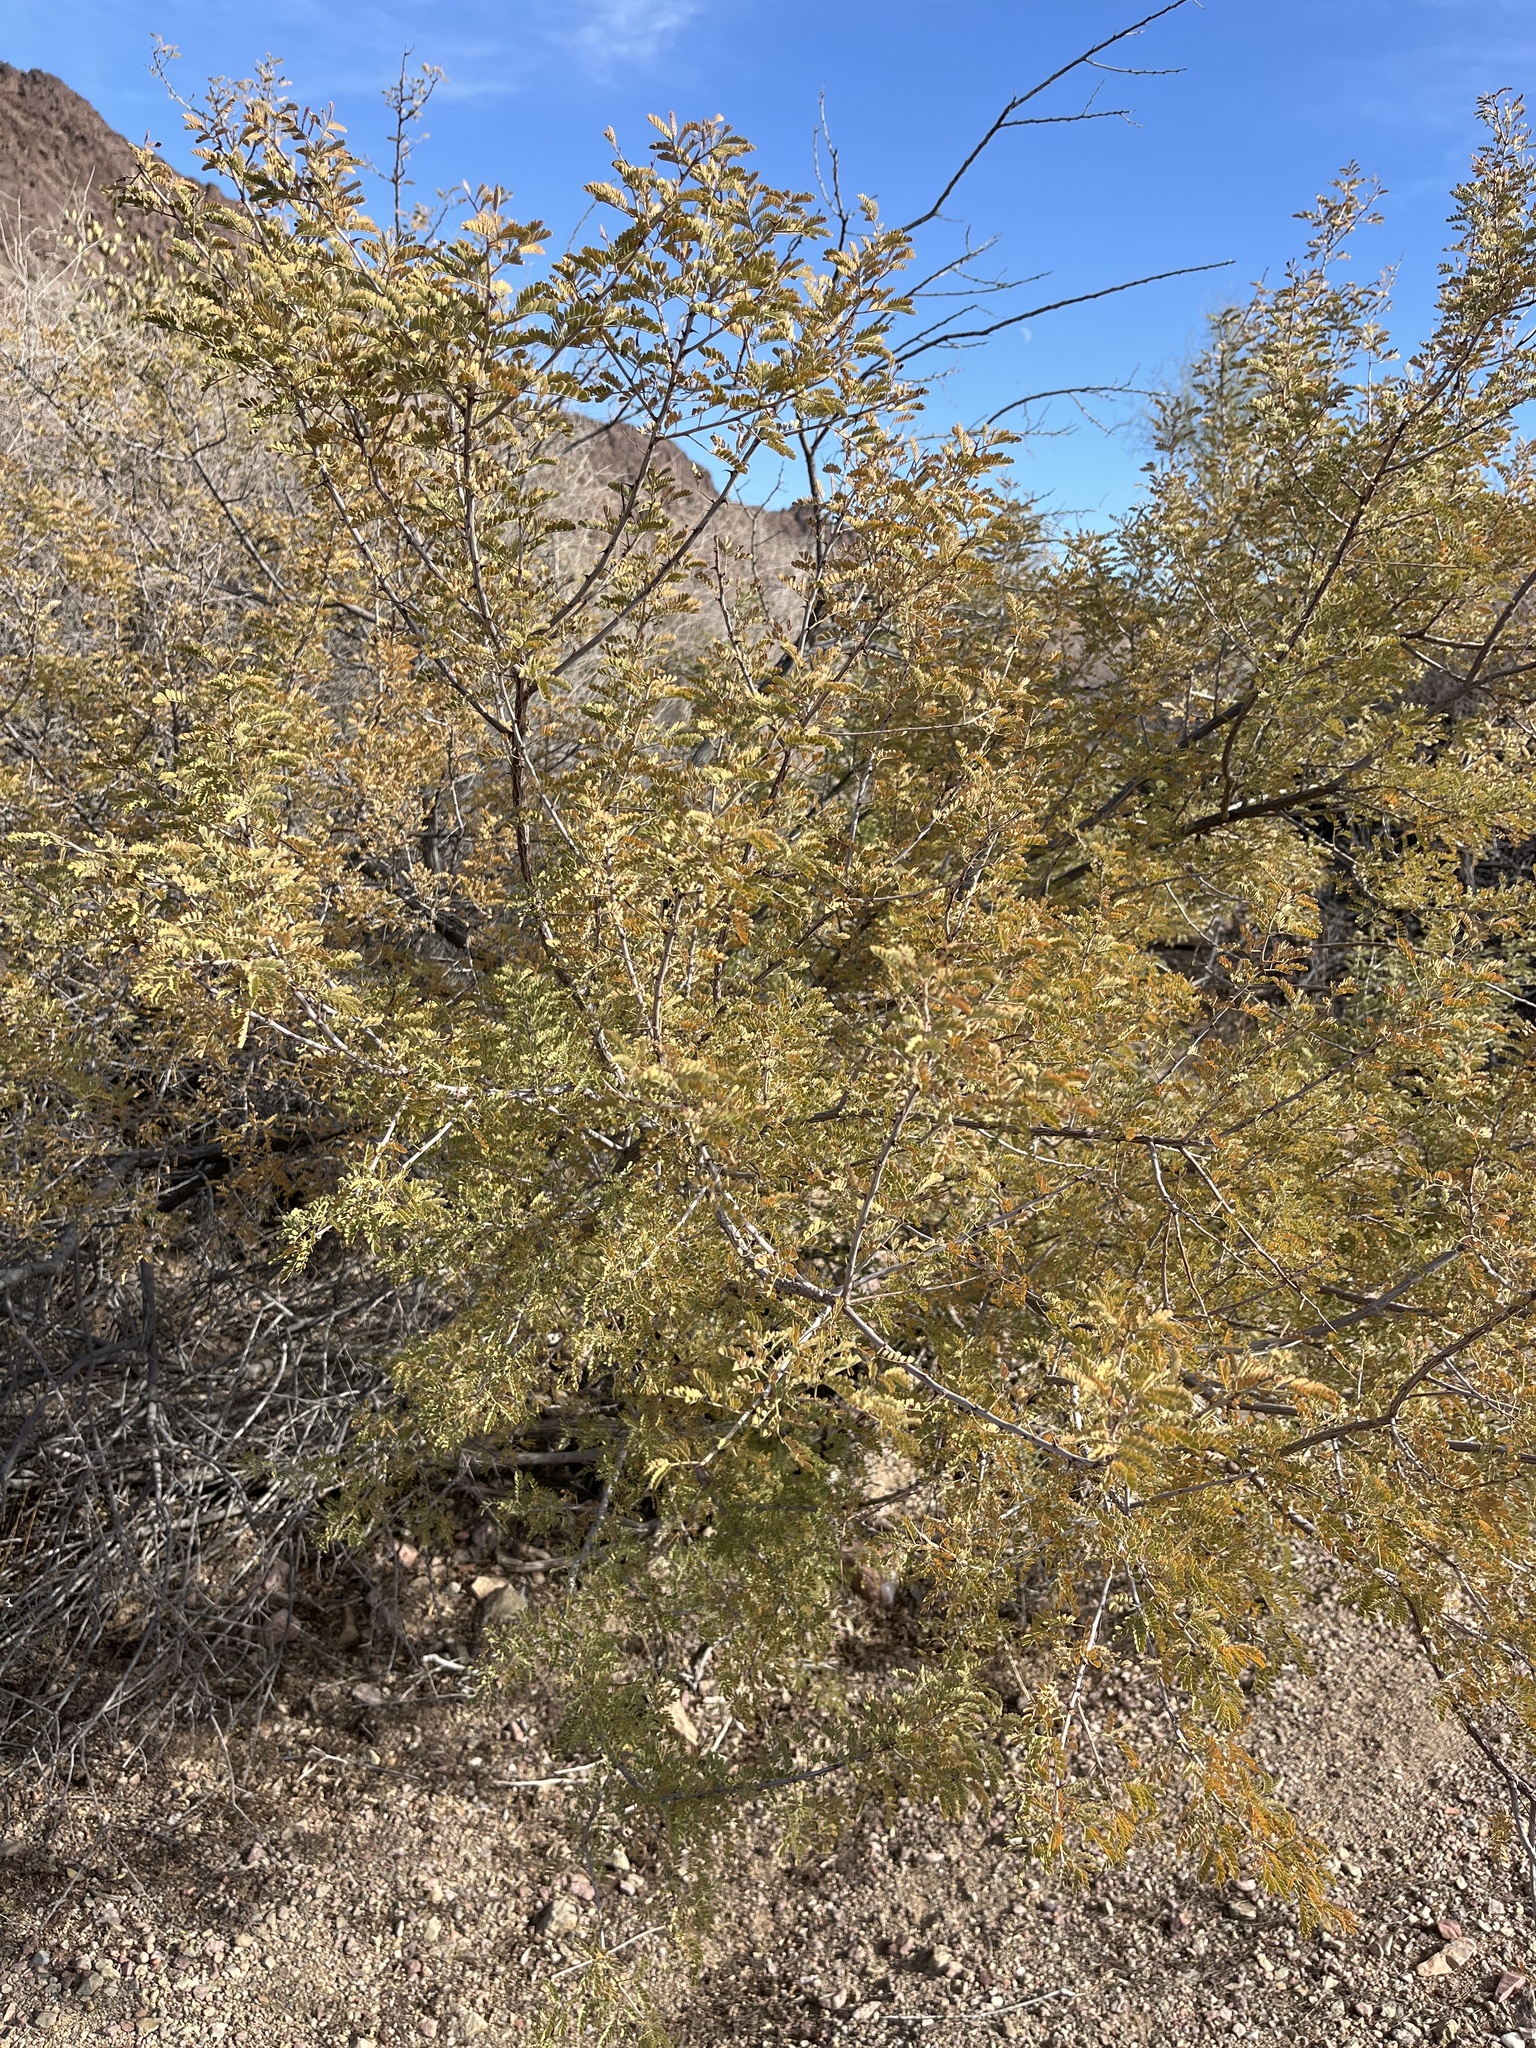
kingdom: Plantae
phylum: Tracheophyta
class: Magnoliopsida
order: Fabales
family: Fabaceae
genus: Senegalia
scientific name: Senegalia greggii
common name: Texas-mimosa
